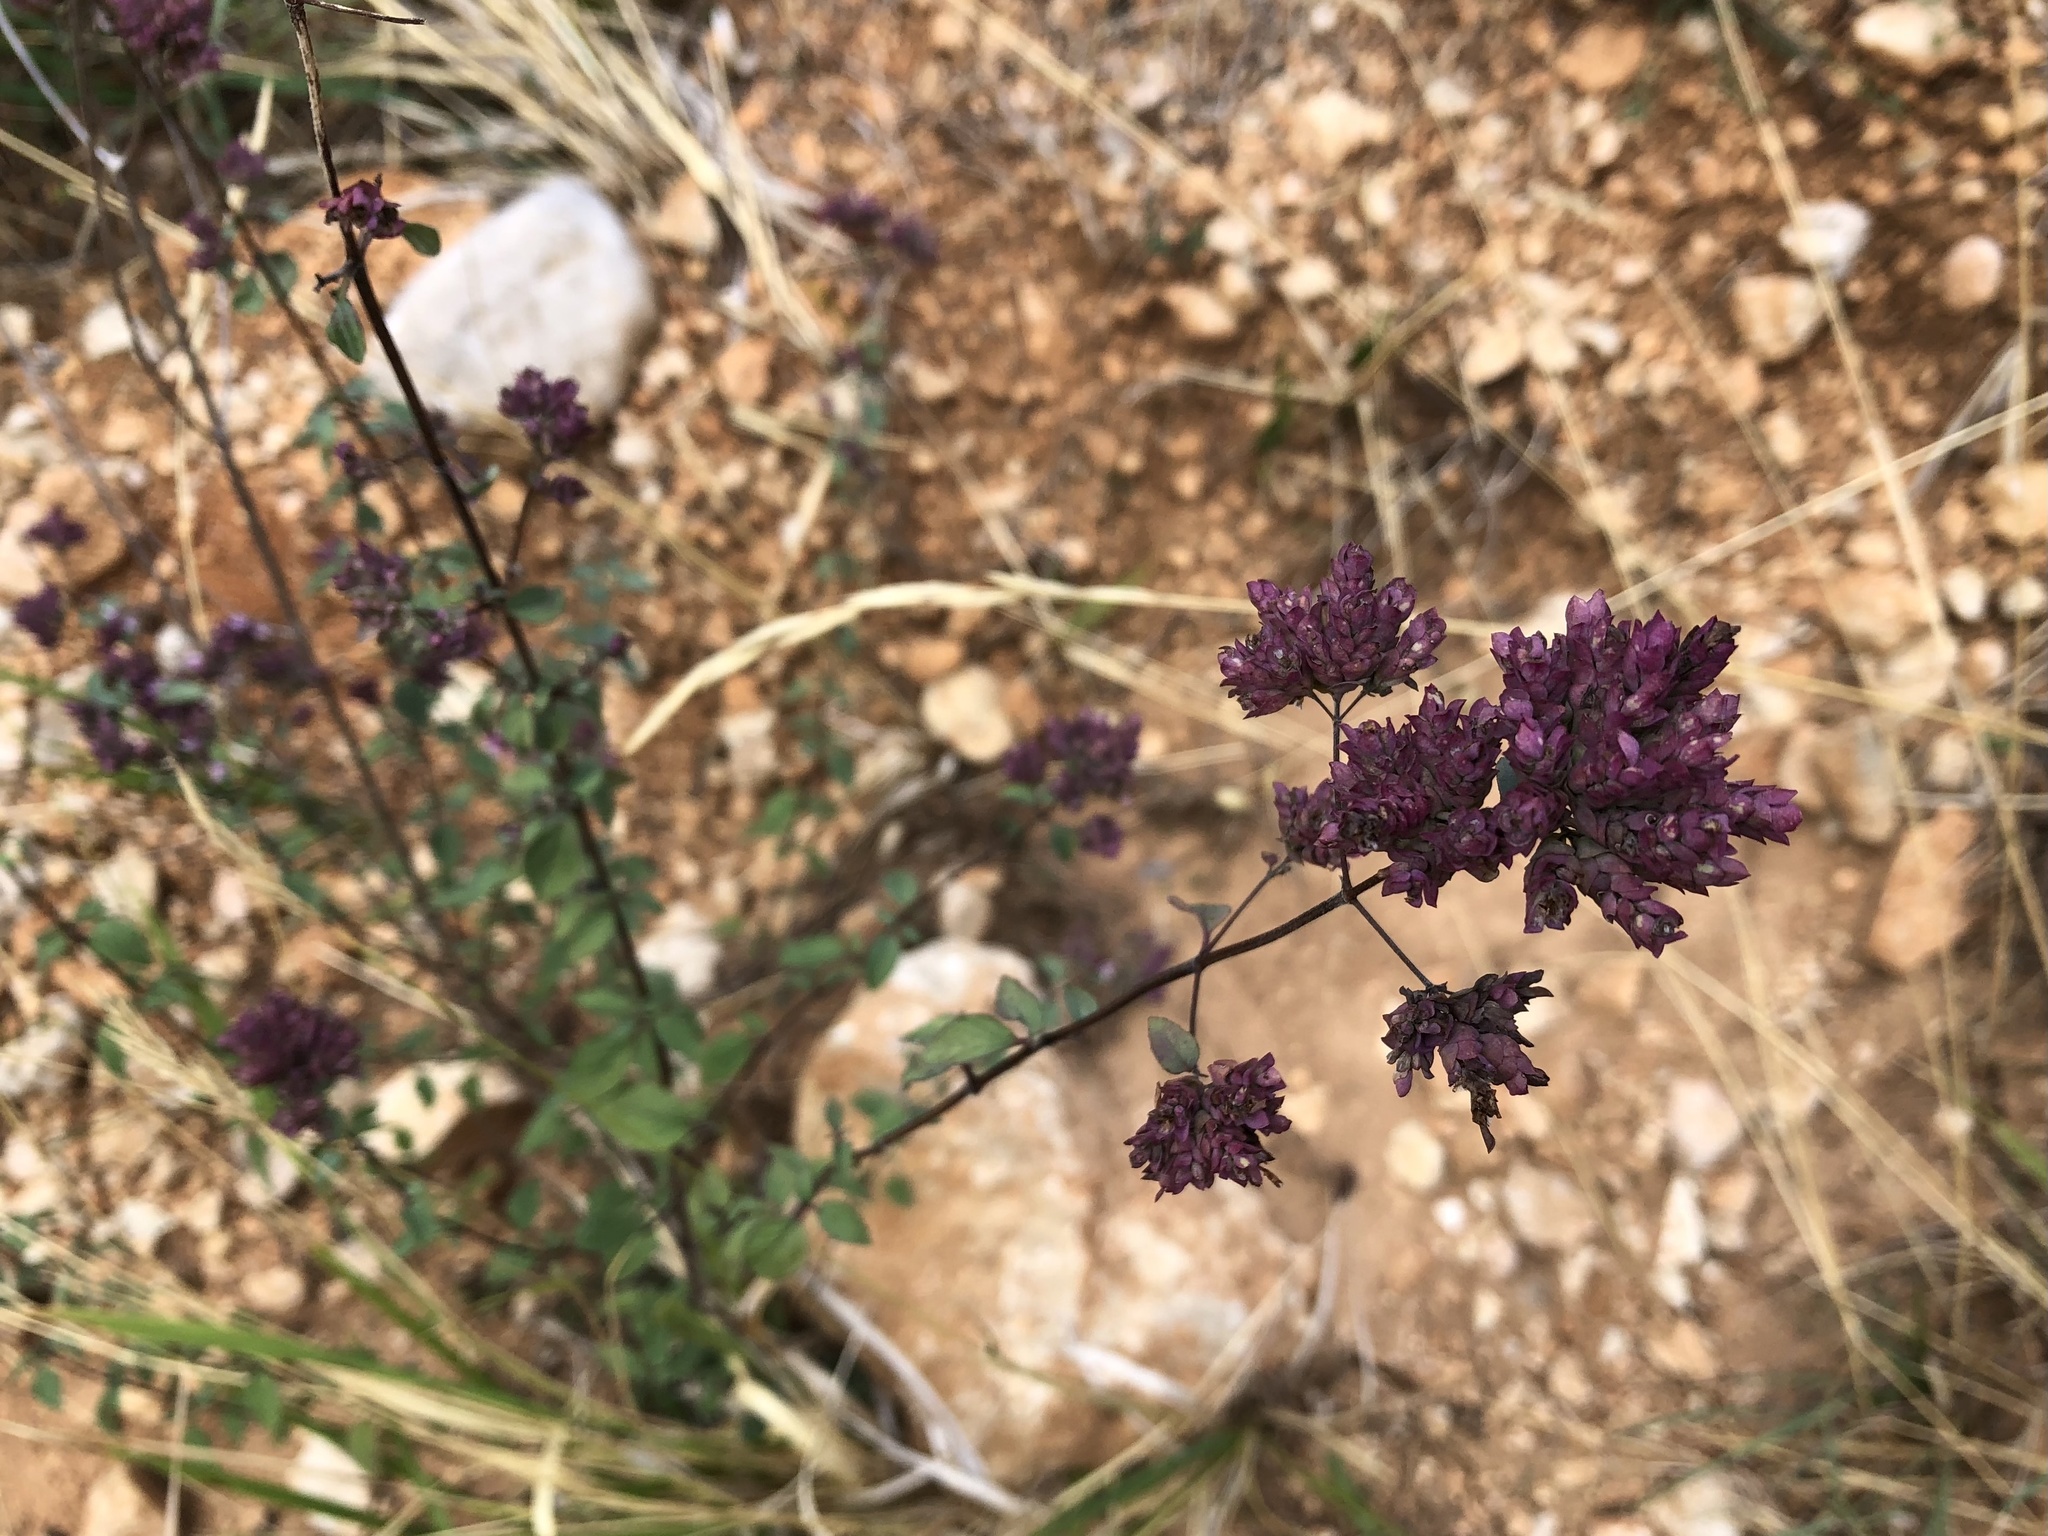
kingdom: Plantae
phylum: Tracheophyta
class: Magnoliopsida
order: Lamiales
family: Lamiaceae
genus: Origanum
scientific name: Origanum vulgare
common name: Wild marjoram
